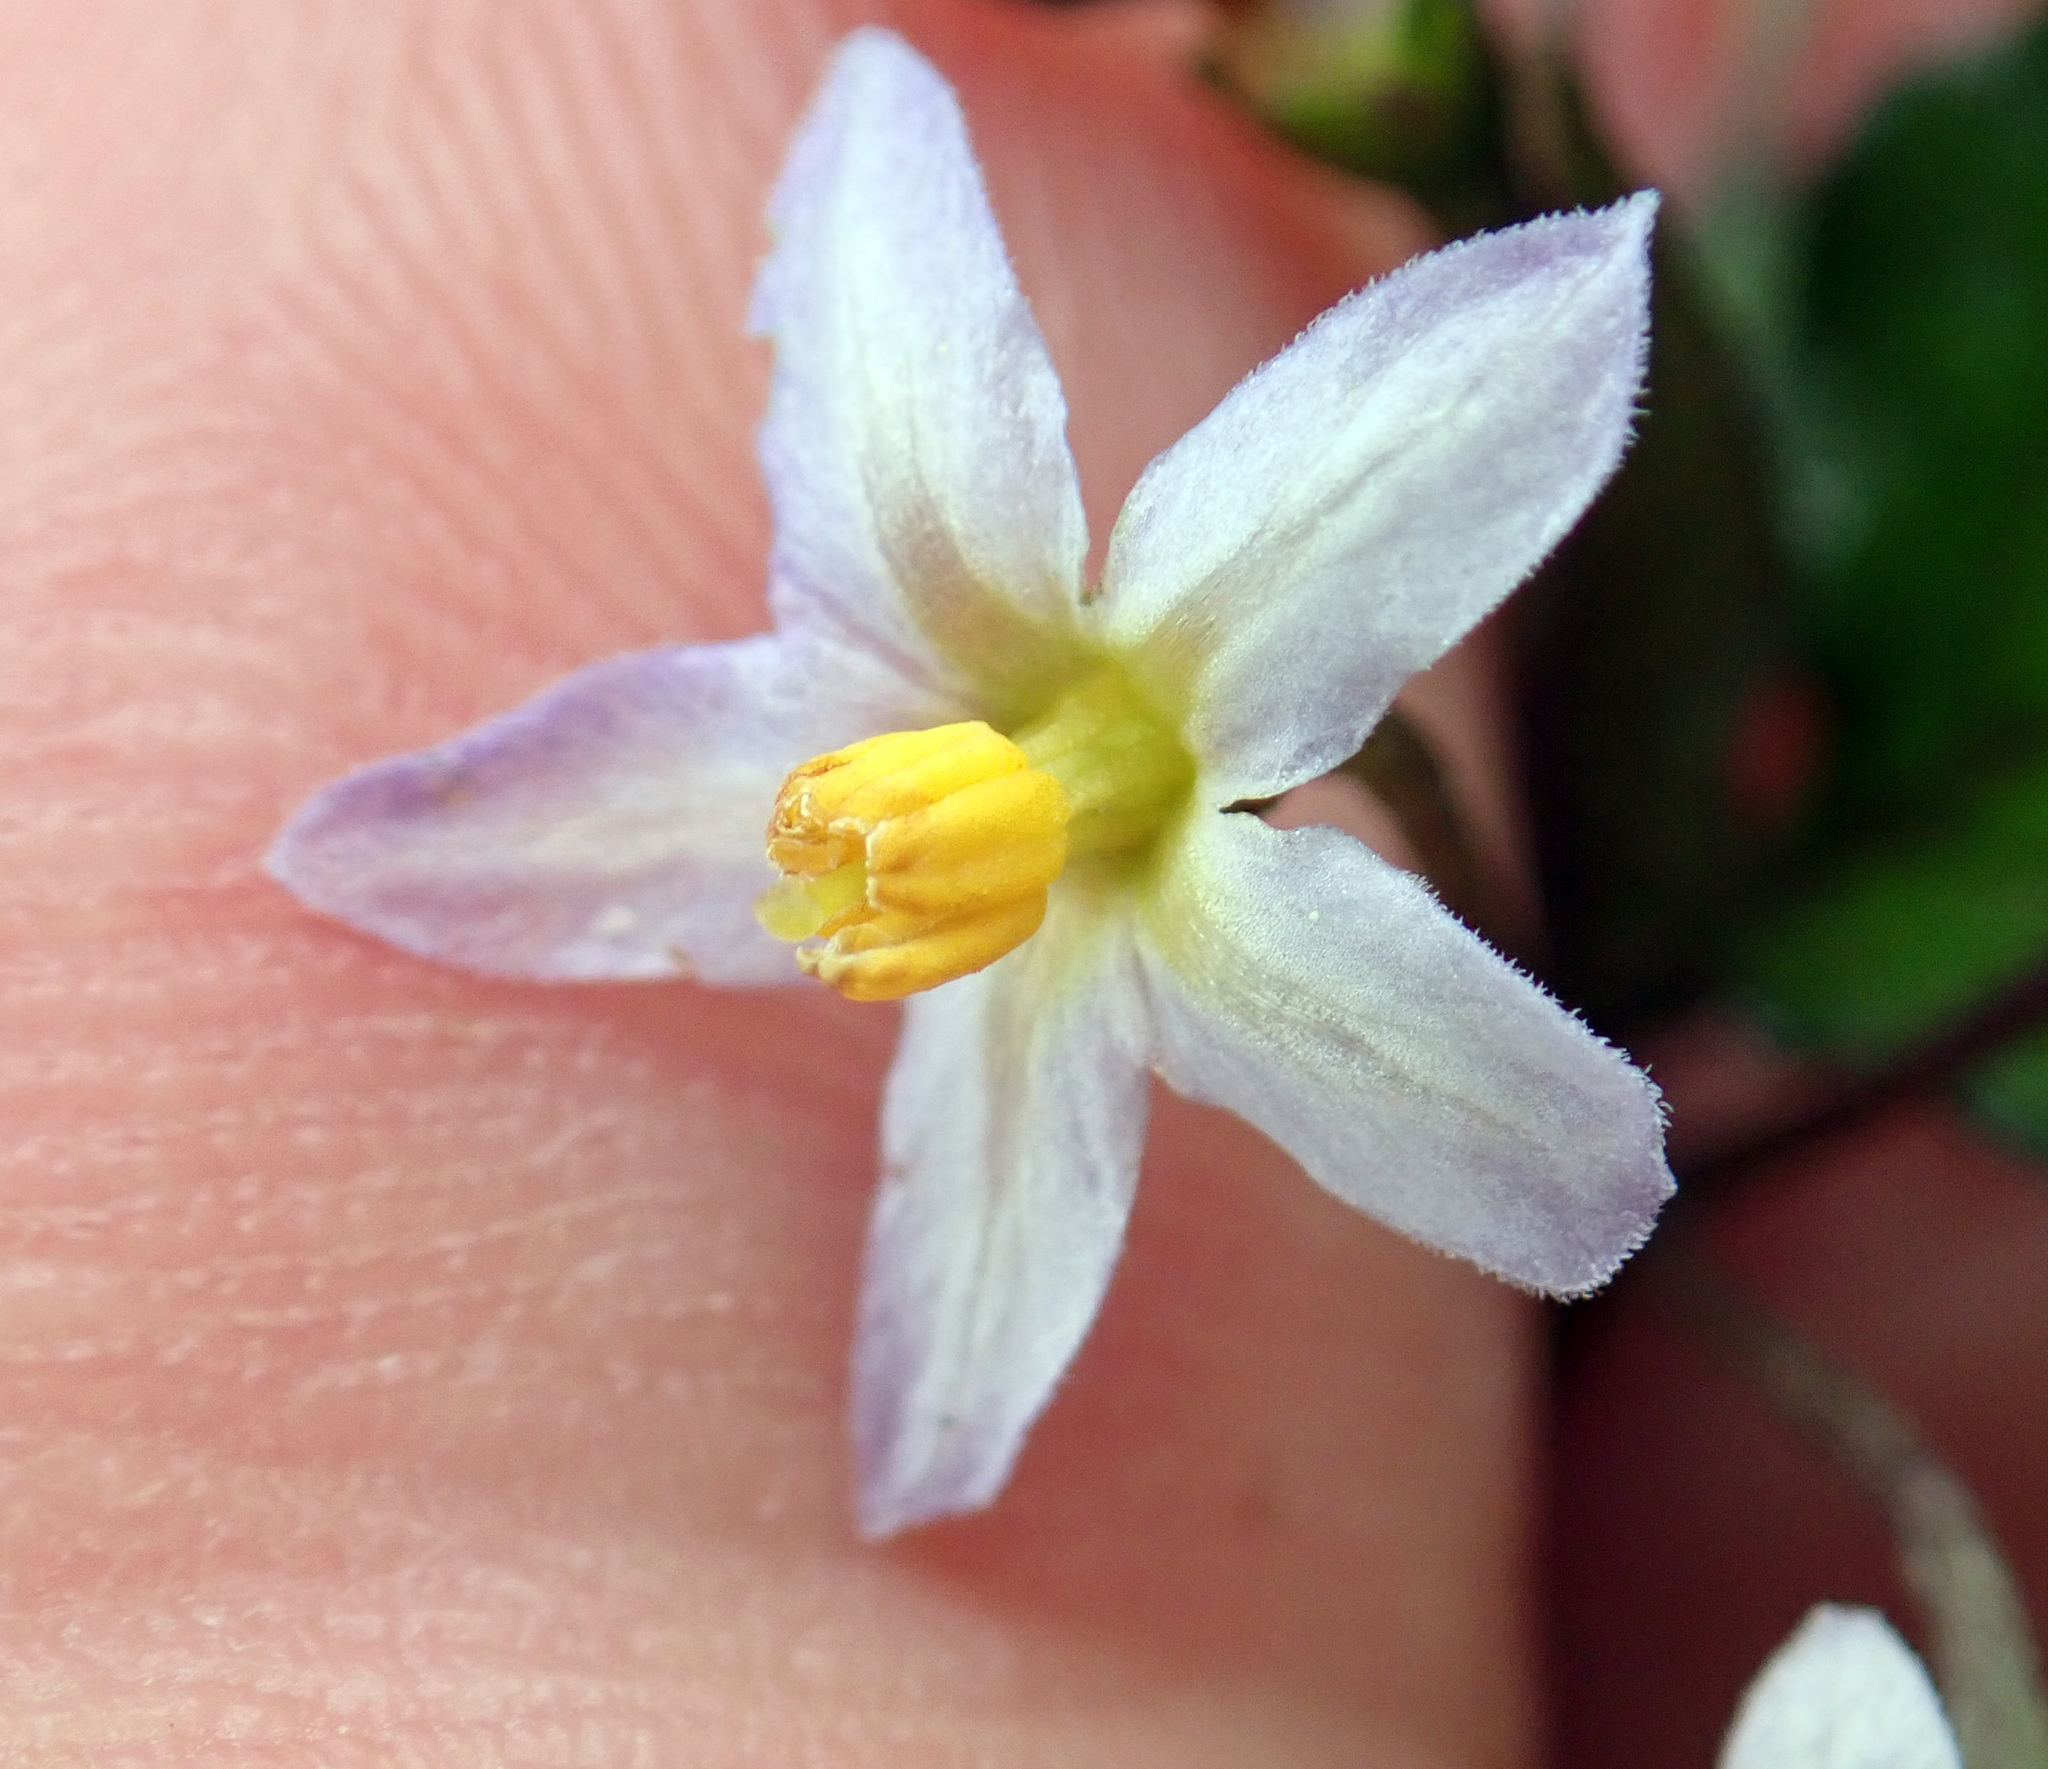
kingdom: Plantae
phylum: Tracheophyta
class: Magnoliopsida
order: Solanales
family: Solanaceae
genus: Solanum
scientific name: Solanum opacum
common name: Green-berry nightshade
